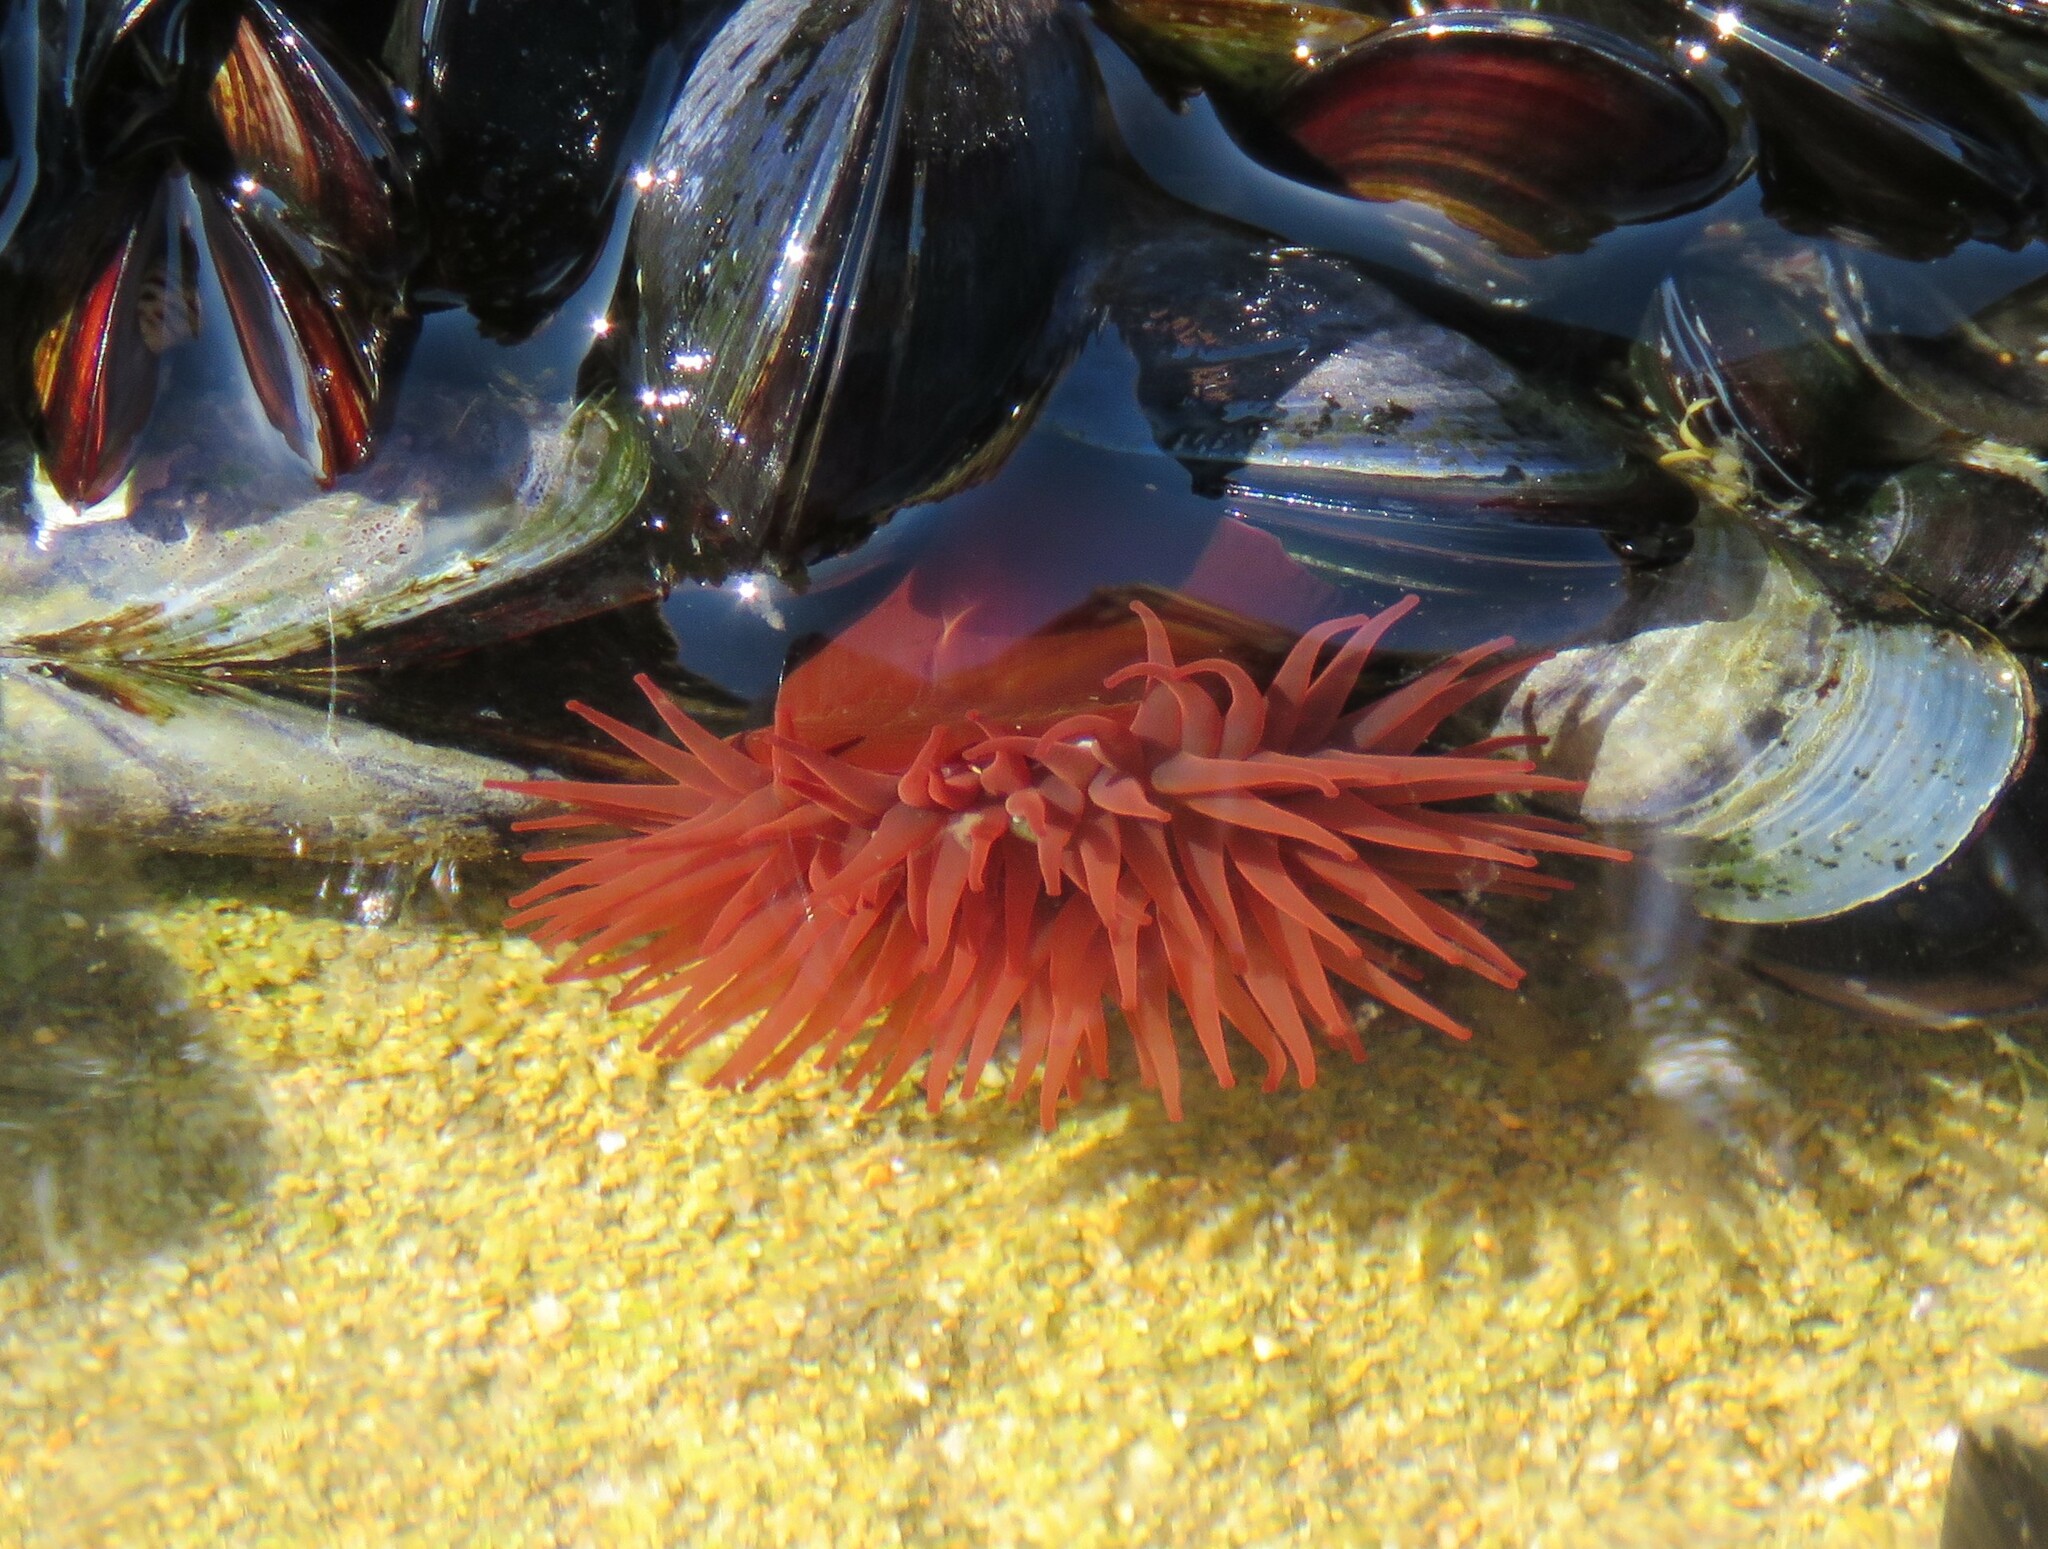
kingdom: Animalia
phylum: Cnidaria
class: Anthozoa
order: Actiniaria
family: Actiniidae
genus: Actinia
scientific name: Actinia equina
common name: Beadlet anemone
